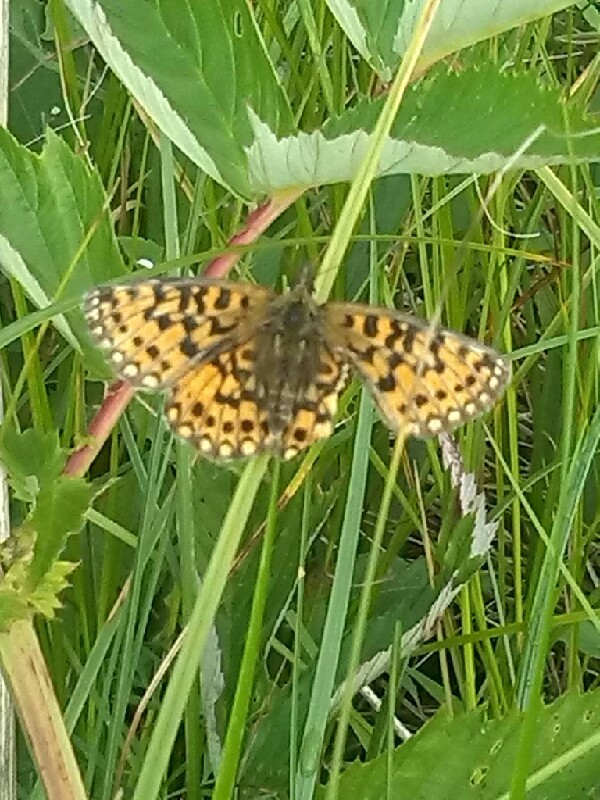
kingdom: Animalia
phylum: Arthropoda
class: Insecta
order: Lepidoptera
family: Nymphalidae
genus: Boloria
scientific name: Boloria selene
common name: Small pearl-bordered fritillary
